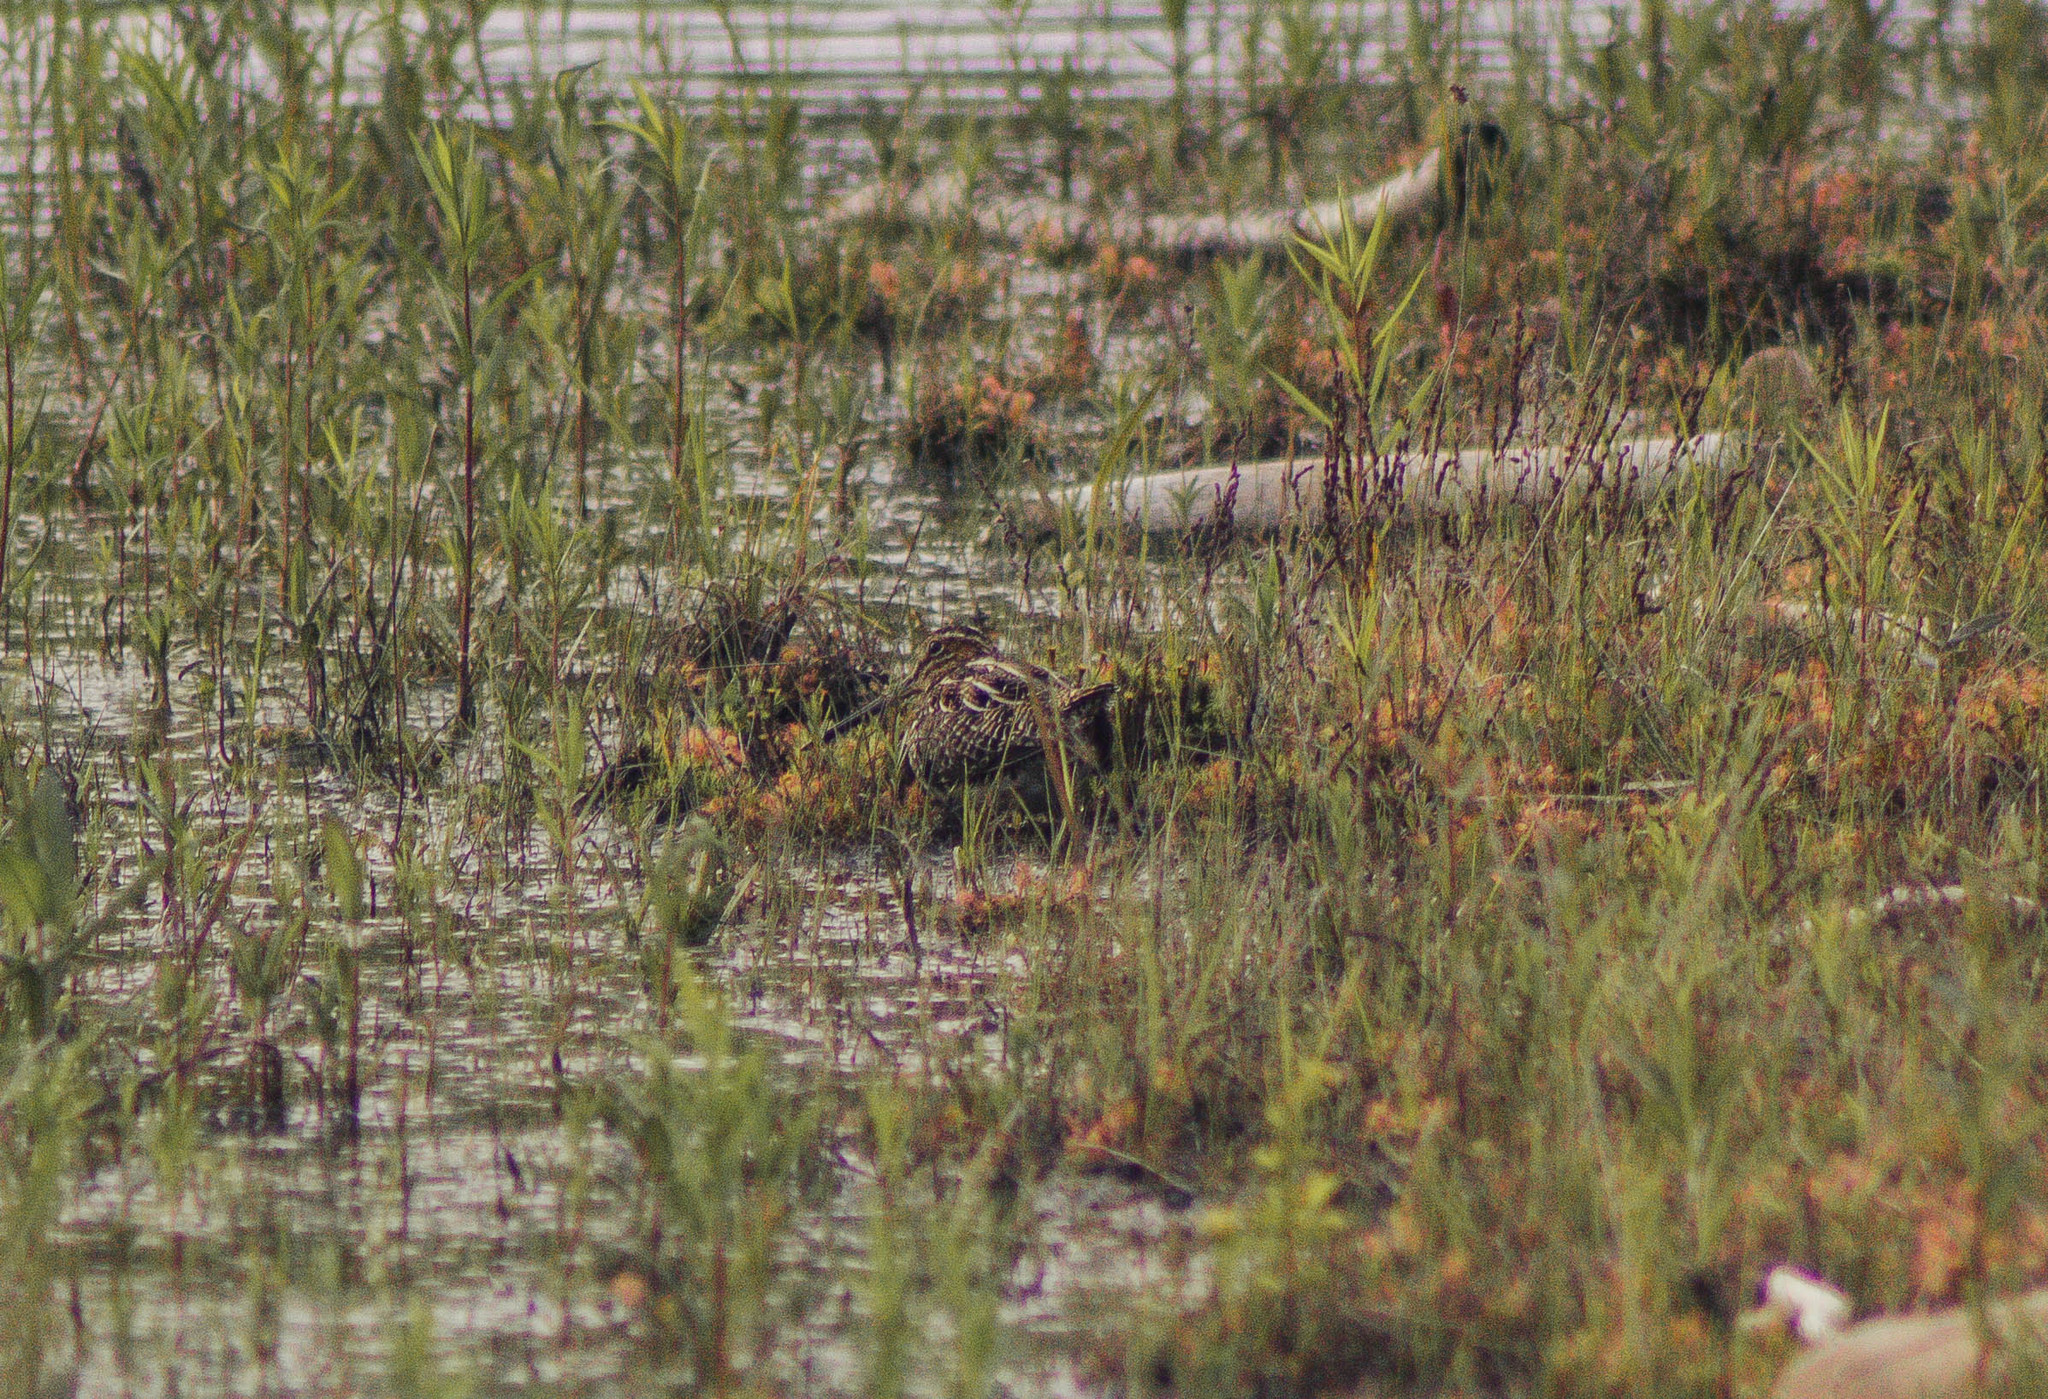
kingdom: Animalia
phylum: Chordata
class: Aves
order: Charadriiformes
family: Scolopacidae
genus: Gallinago
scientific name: Gallinago delicata
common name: Wilson's snipe
